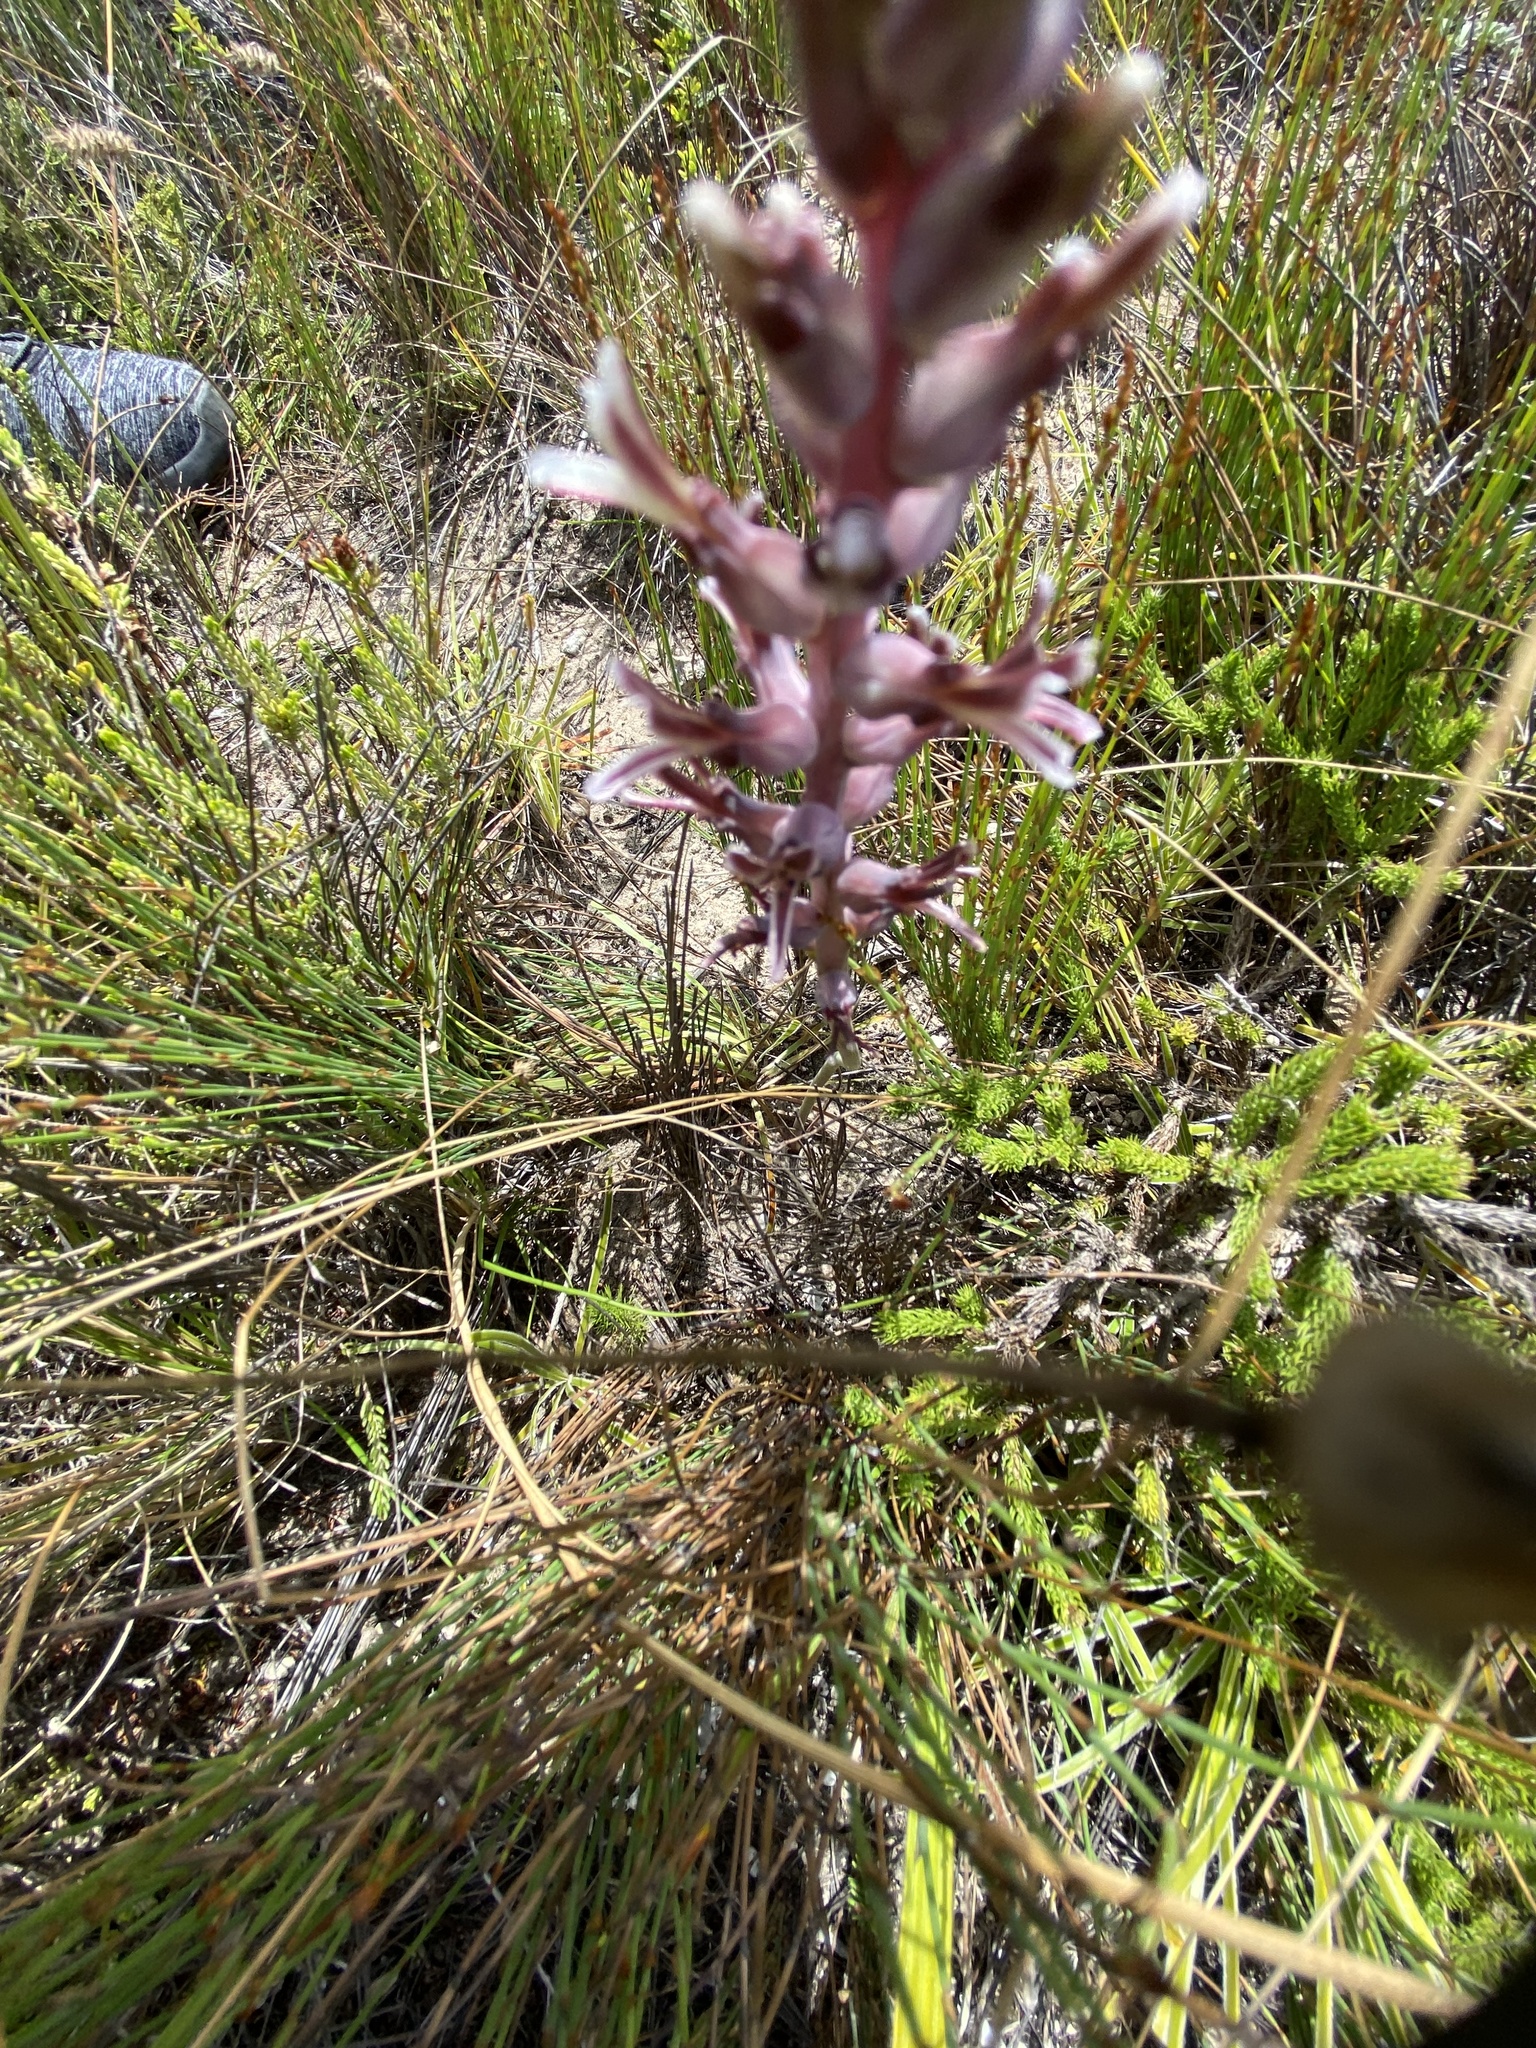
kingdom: Plantae
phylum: Tracheophyta
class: Liliopsida
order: Asparagales
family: Asparagaceae
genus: Lachenalia
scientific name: Lachenalia sessiliflora
